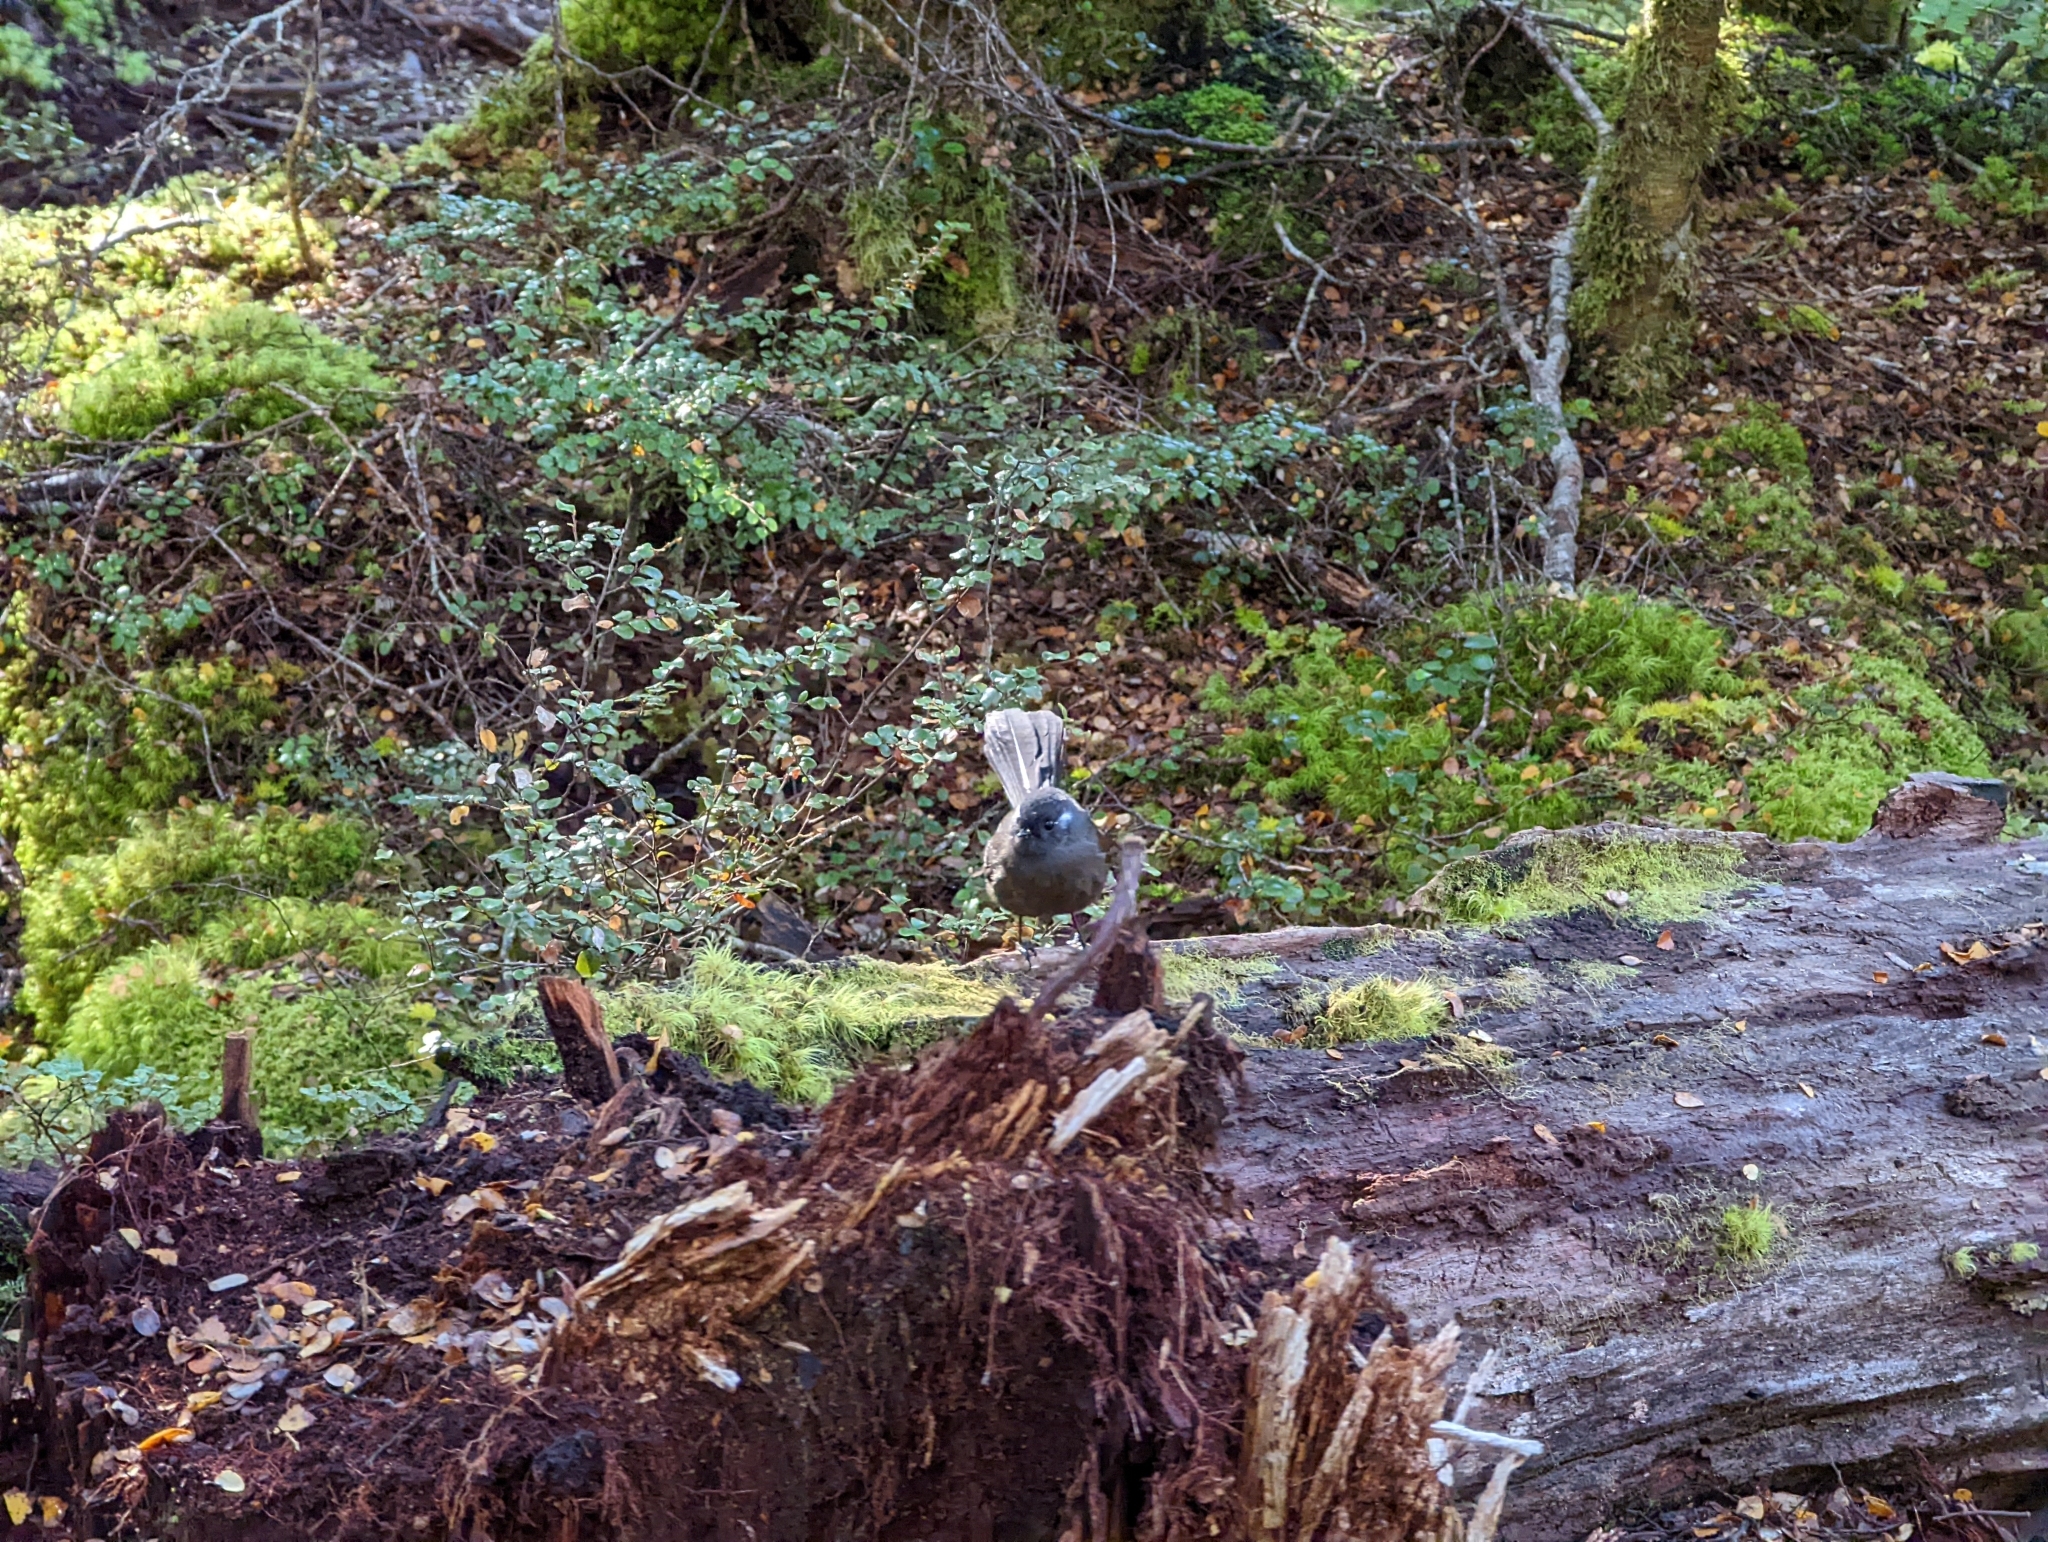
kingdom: Animalia
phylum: Chordata
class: Aves
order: Passeriformes
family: Rhipiduridae
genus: Rhipidura
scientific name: Rhipidura fuliginosa
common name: New zealand fantail
